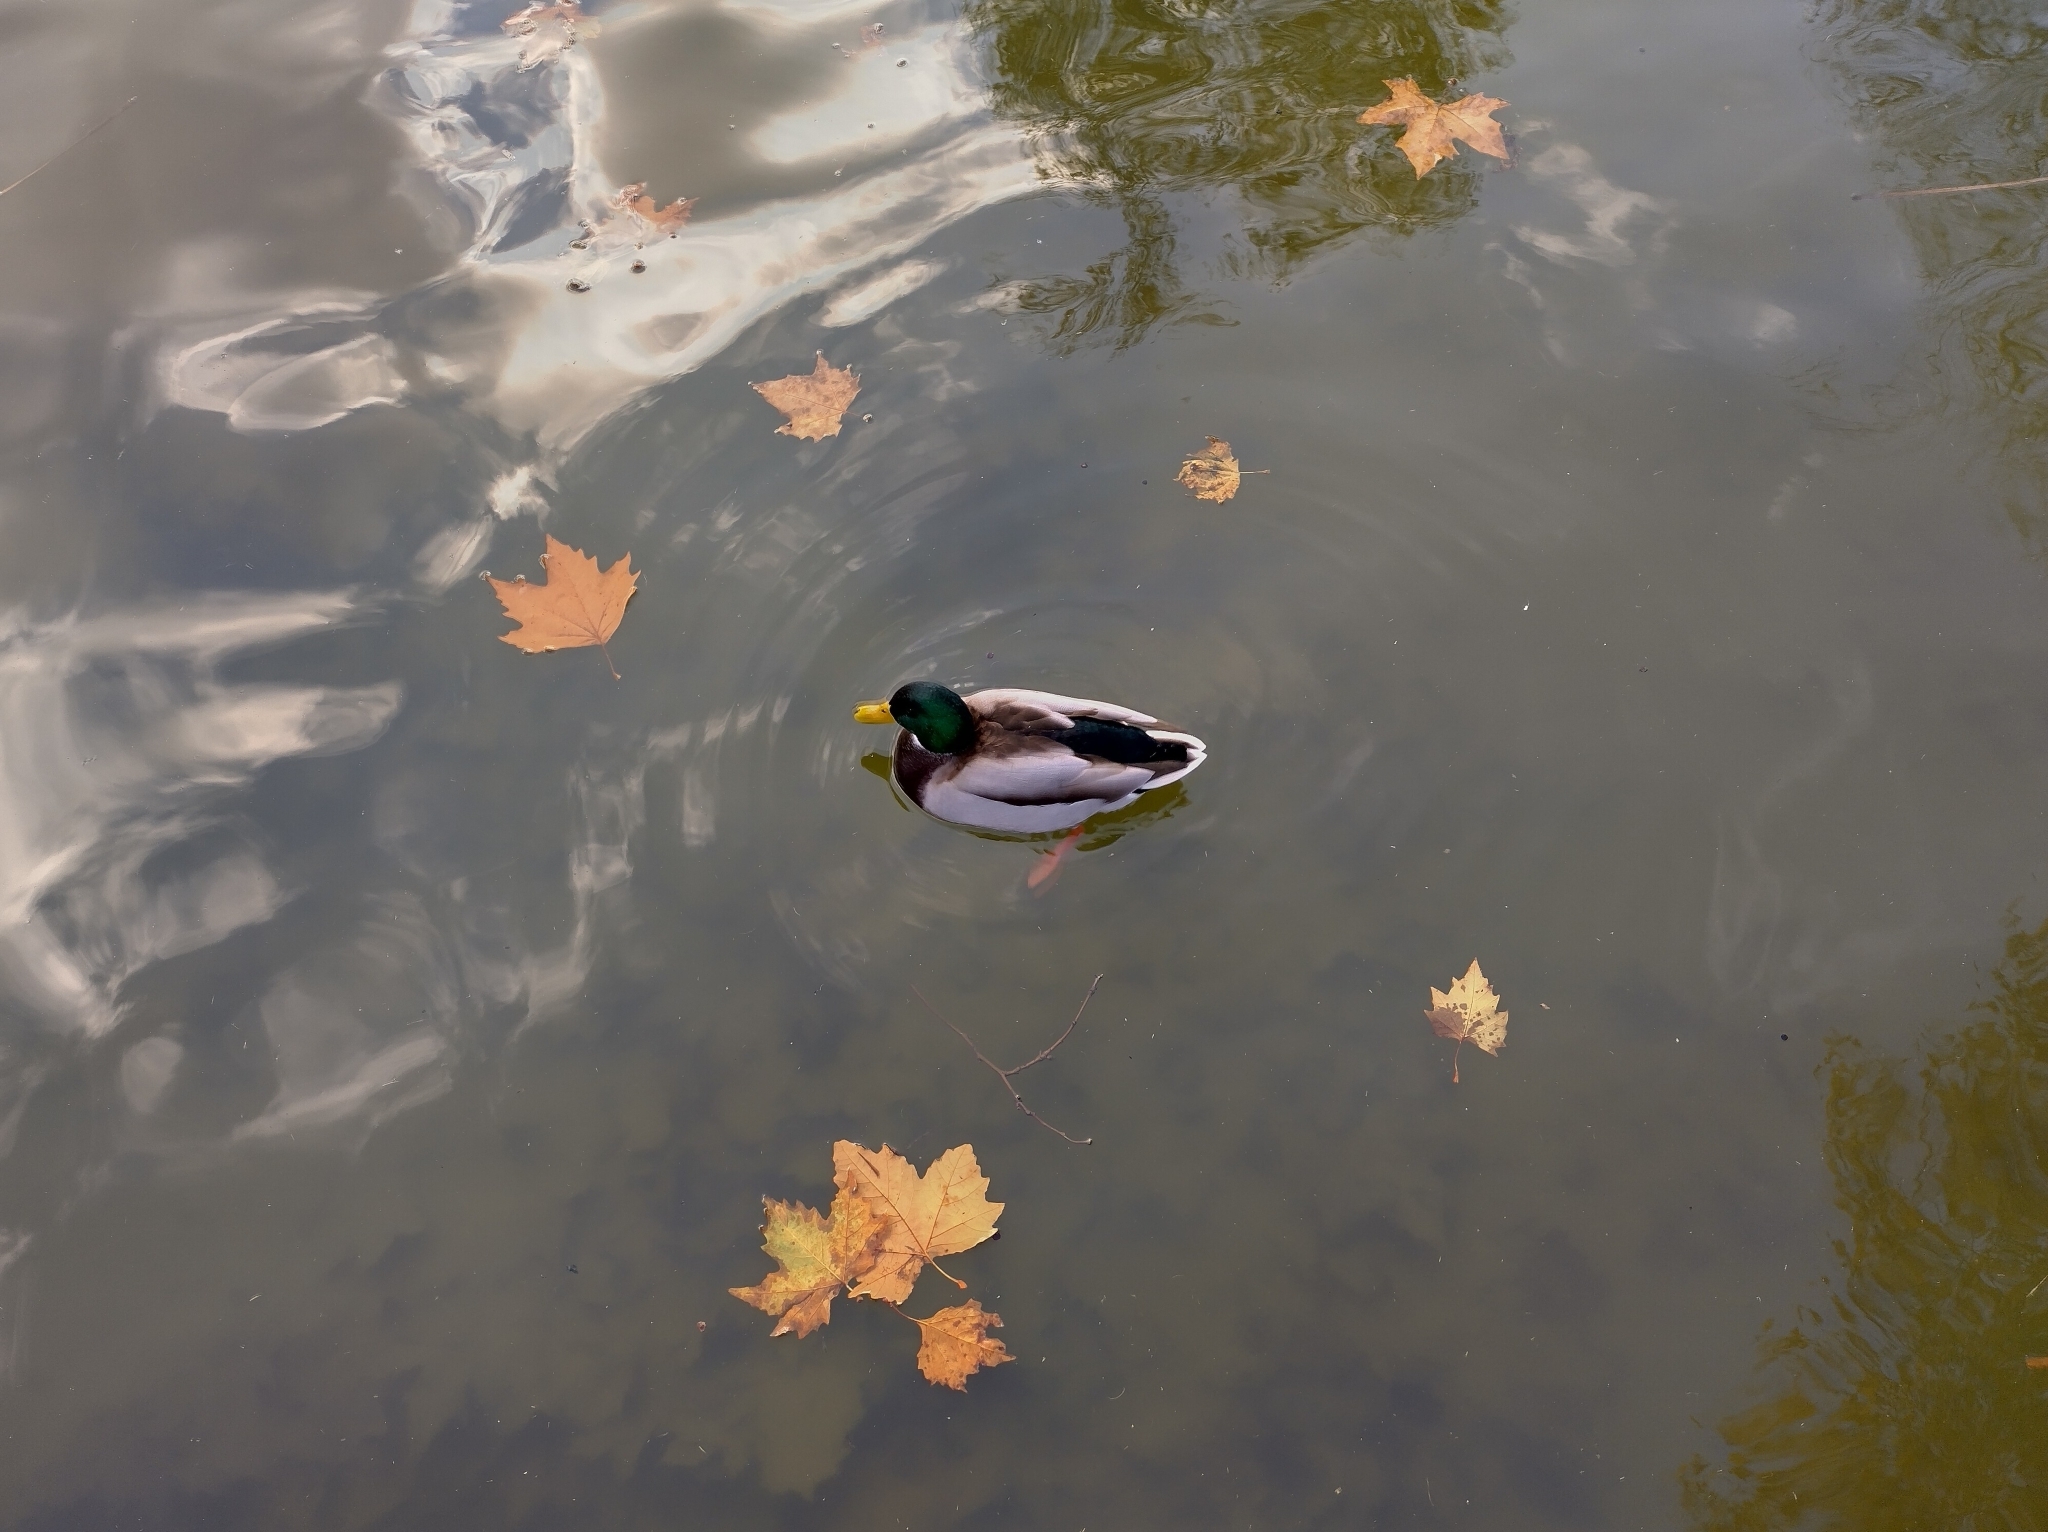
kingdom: Animalia
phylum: Chordata
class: Aves
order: Anseriformes
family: Anatidae
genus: Anas
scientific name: Anas platyrhynchos
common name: Mallard
